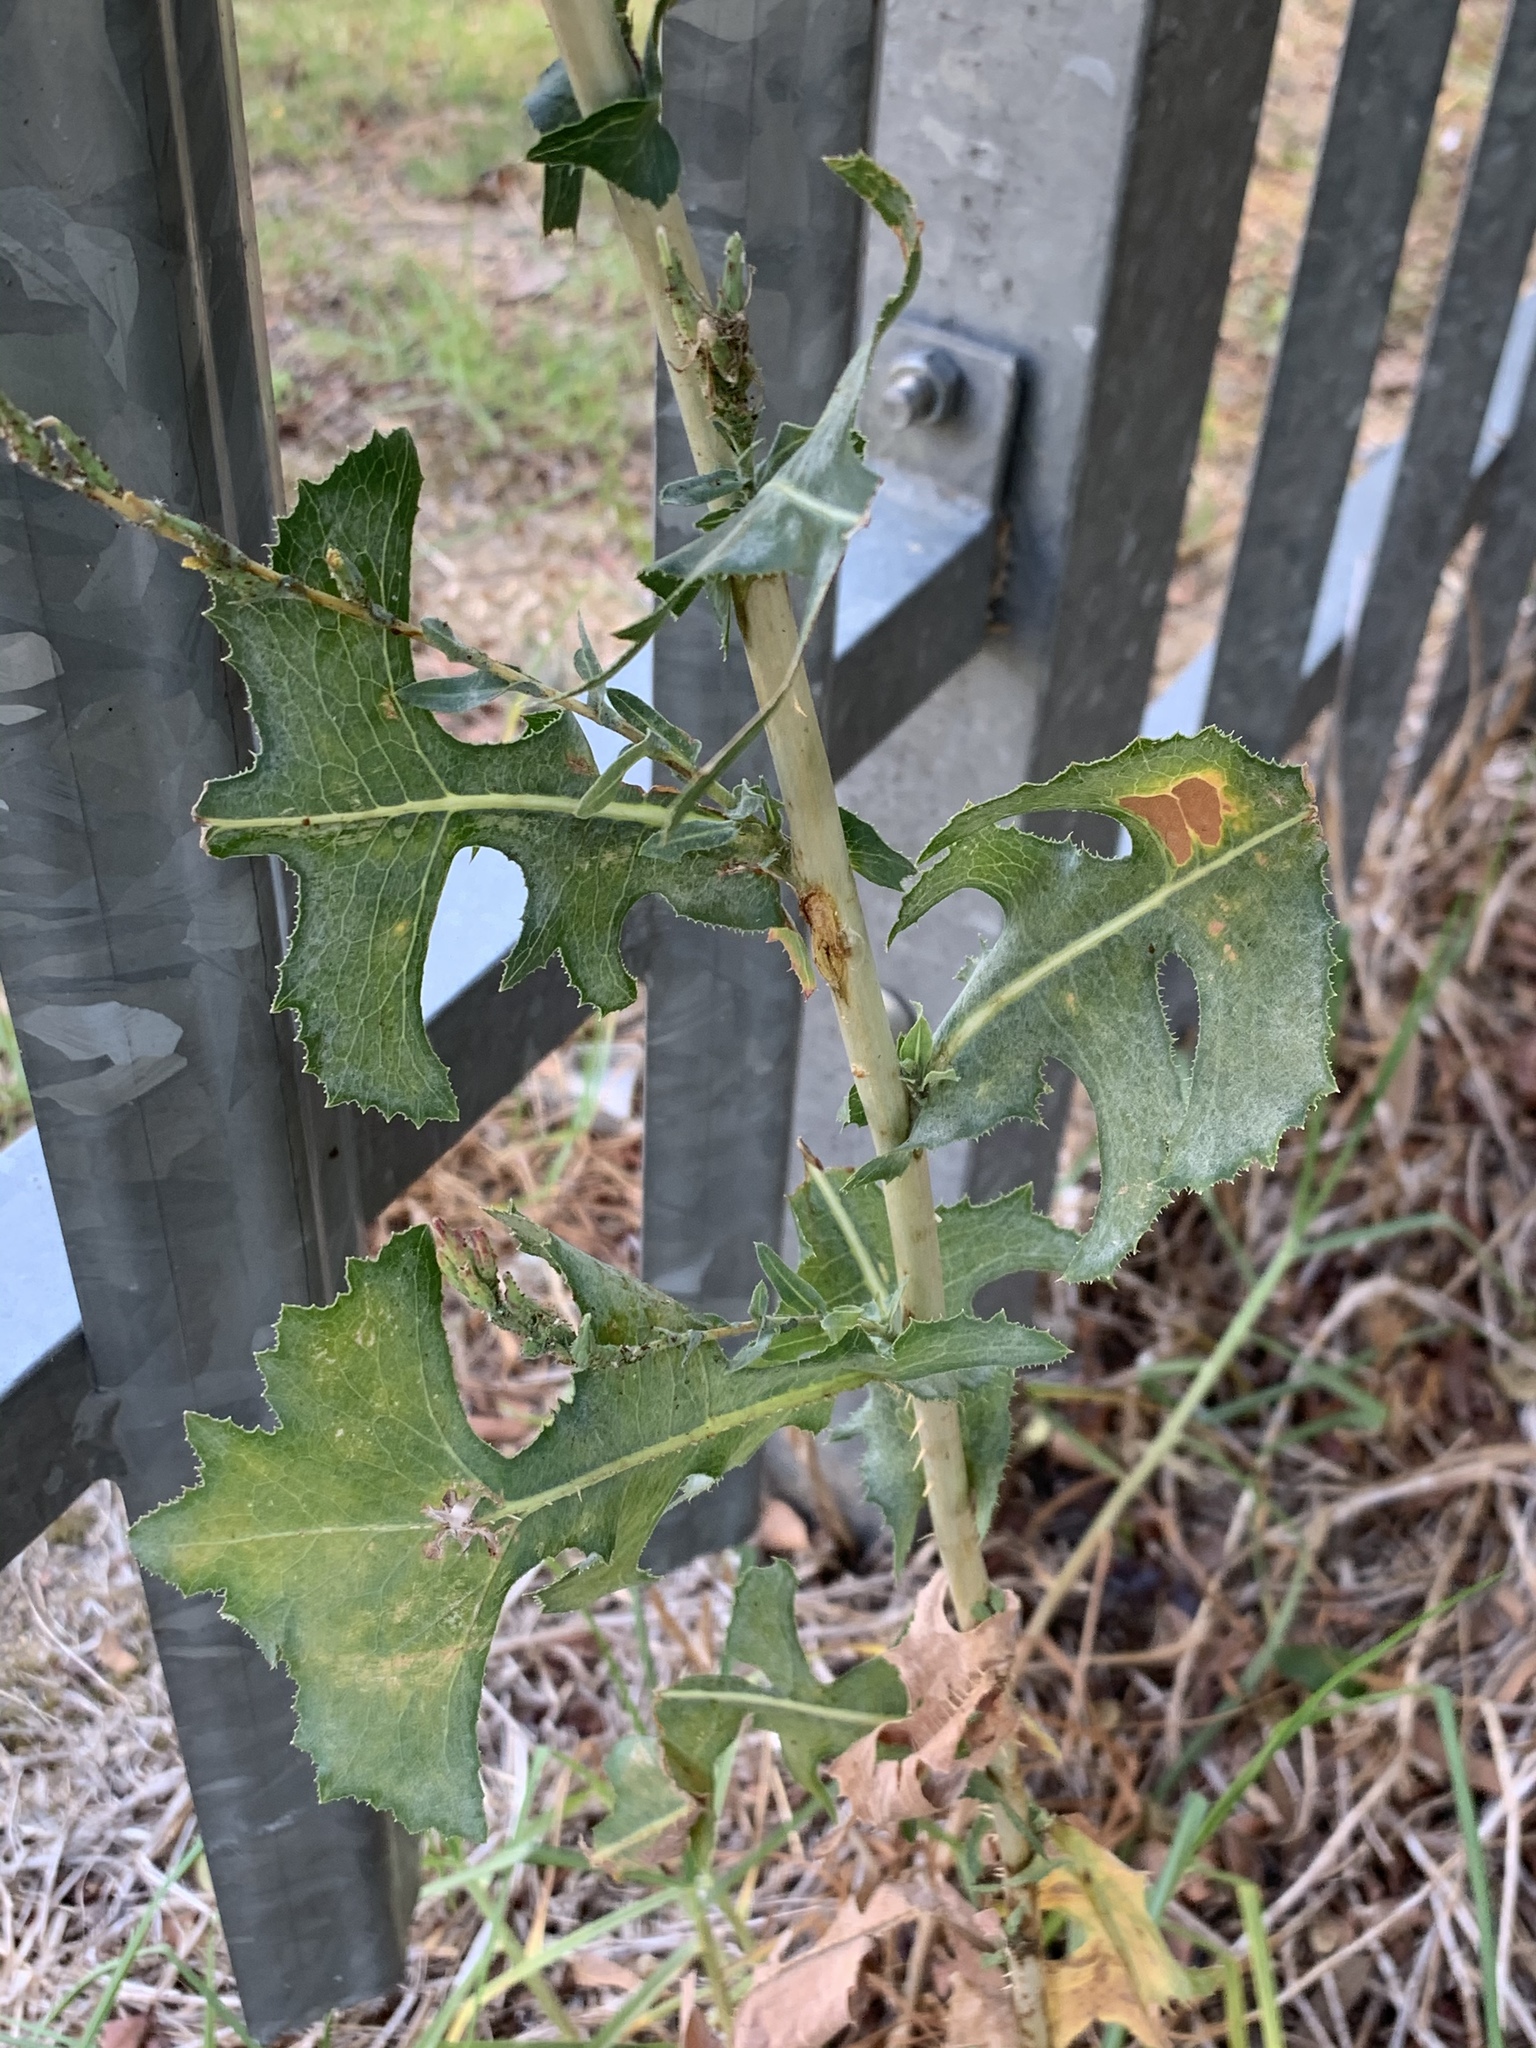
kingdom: Plantae
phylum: Tracheophyta
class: Magnoliopsida
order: Asterales
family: Asteraceae
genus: Lactuca
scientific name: Lactuca serriola
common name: Prickly lettuce
